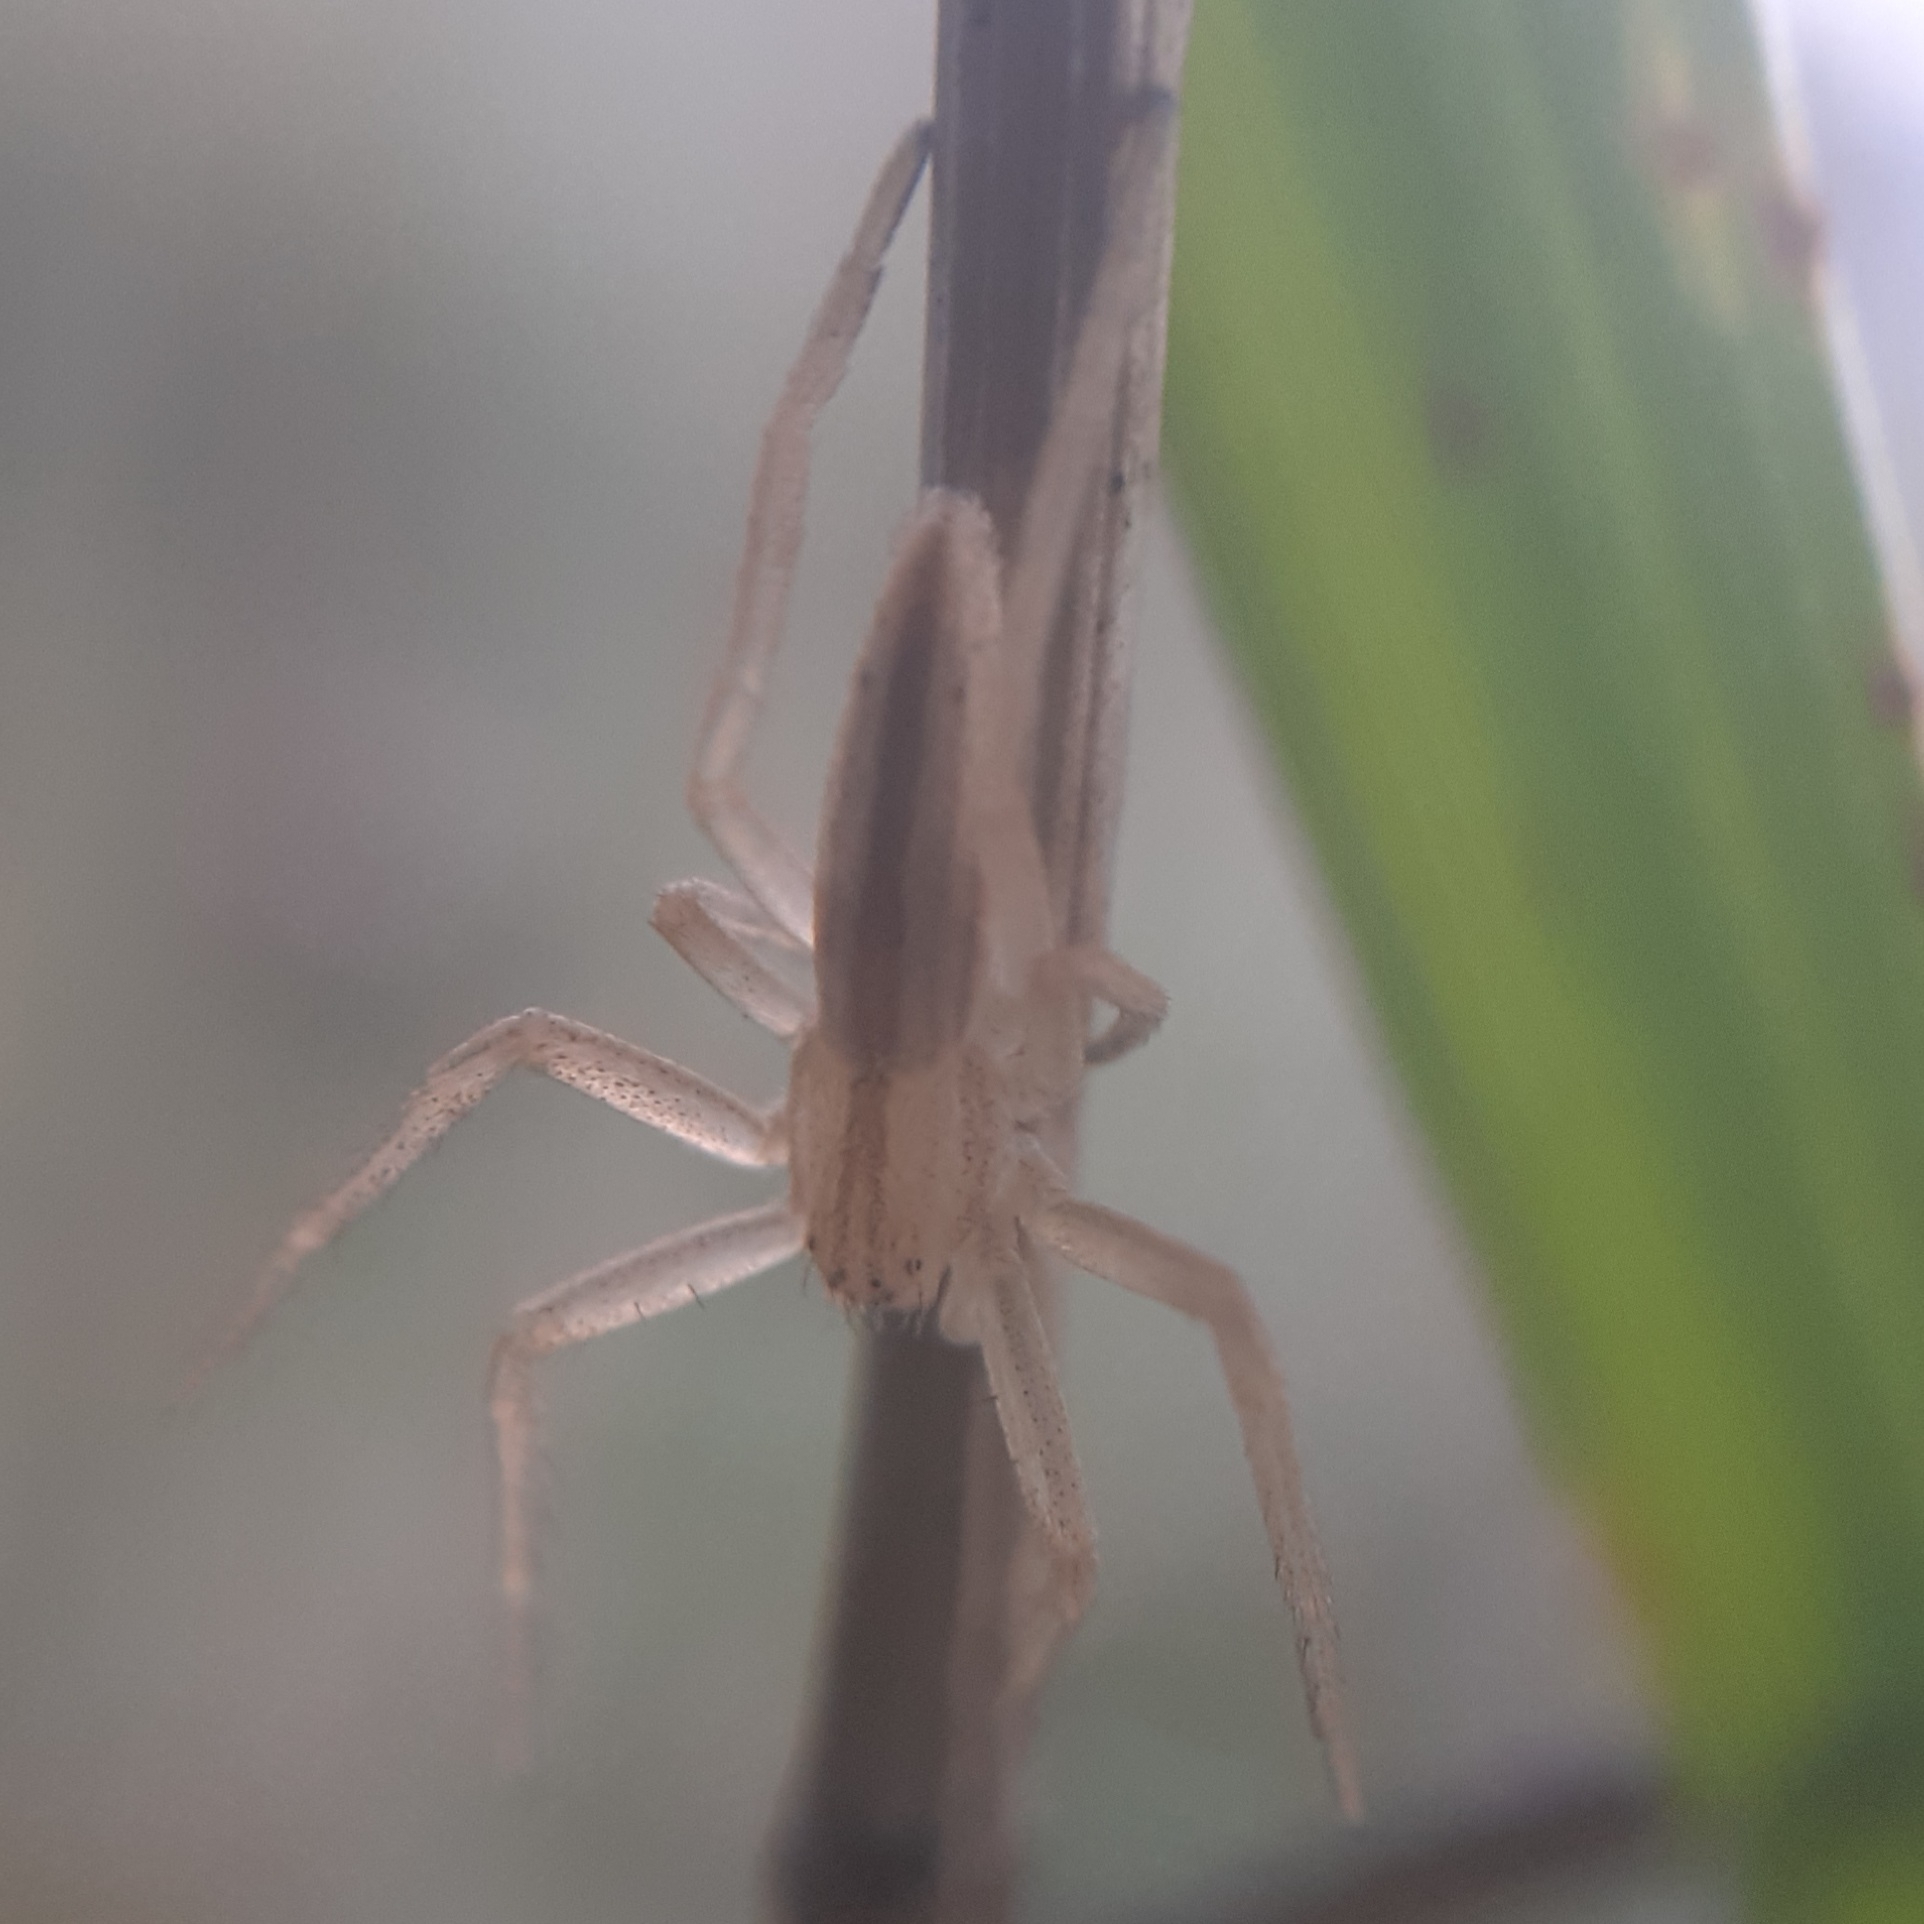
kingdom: Animalia
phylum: Arthropoda
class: Arachnida
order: Araneae
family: Philodromidae
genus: Tibellus
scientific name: Tibellus oblongus
